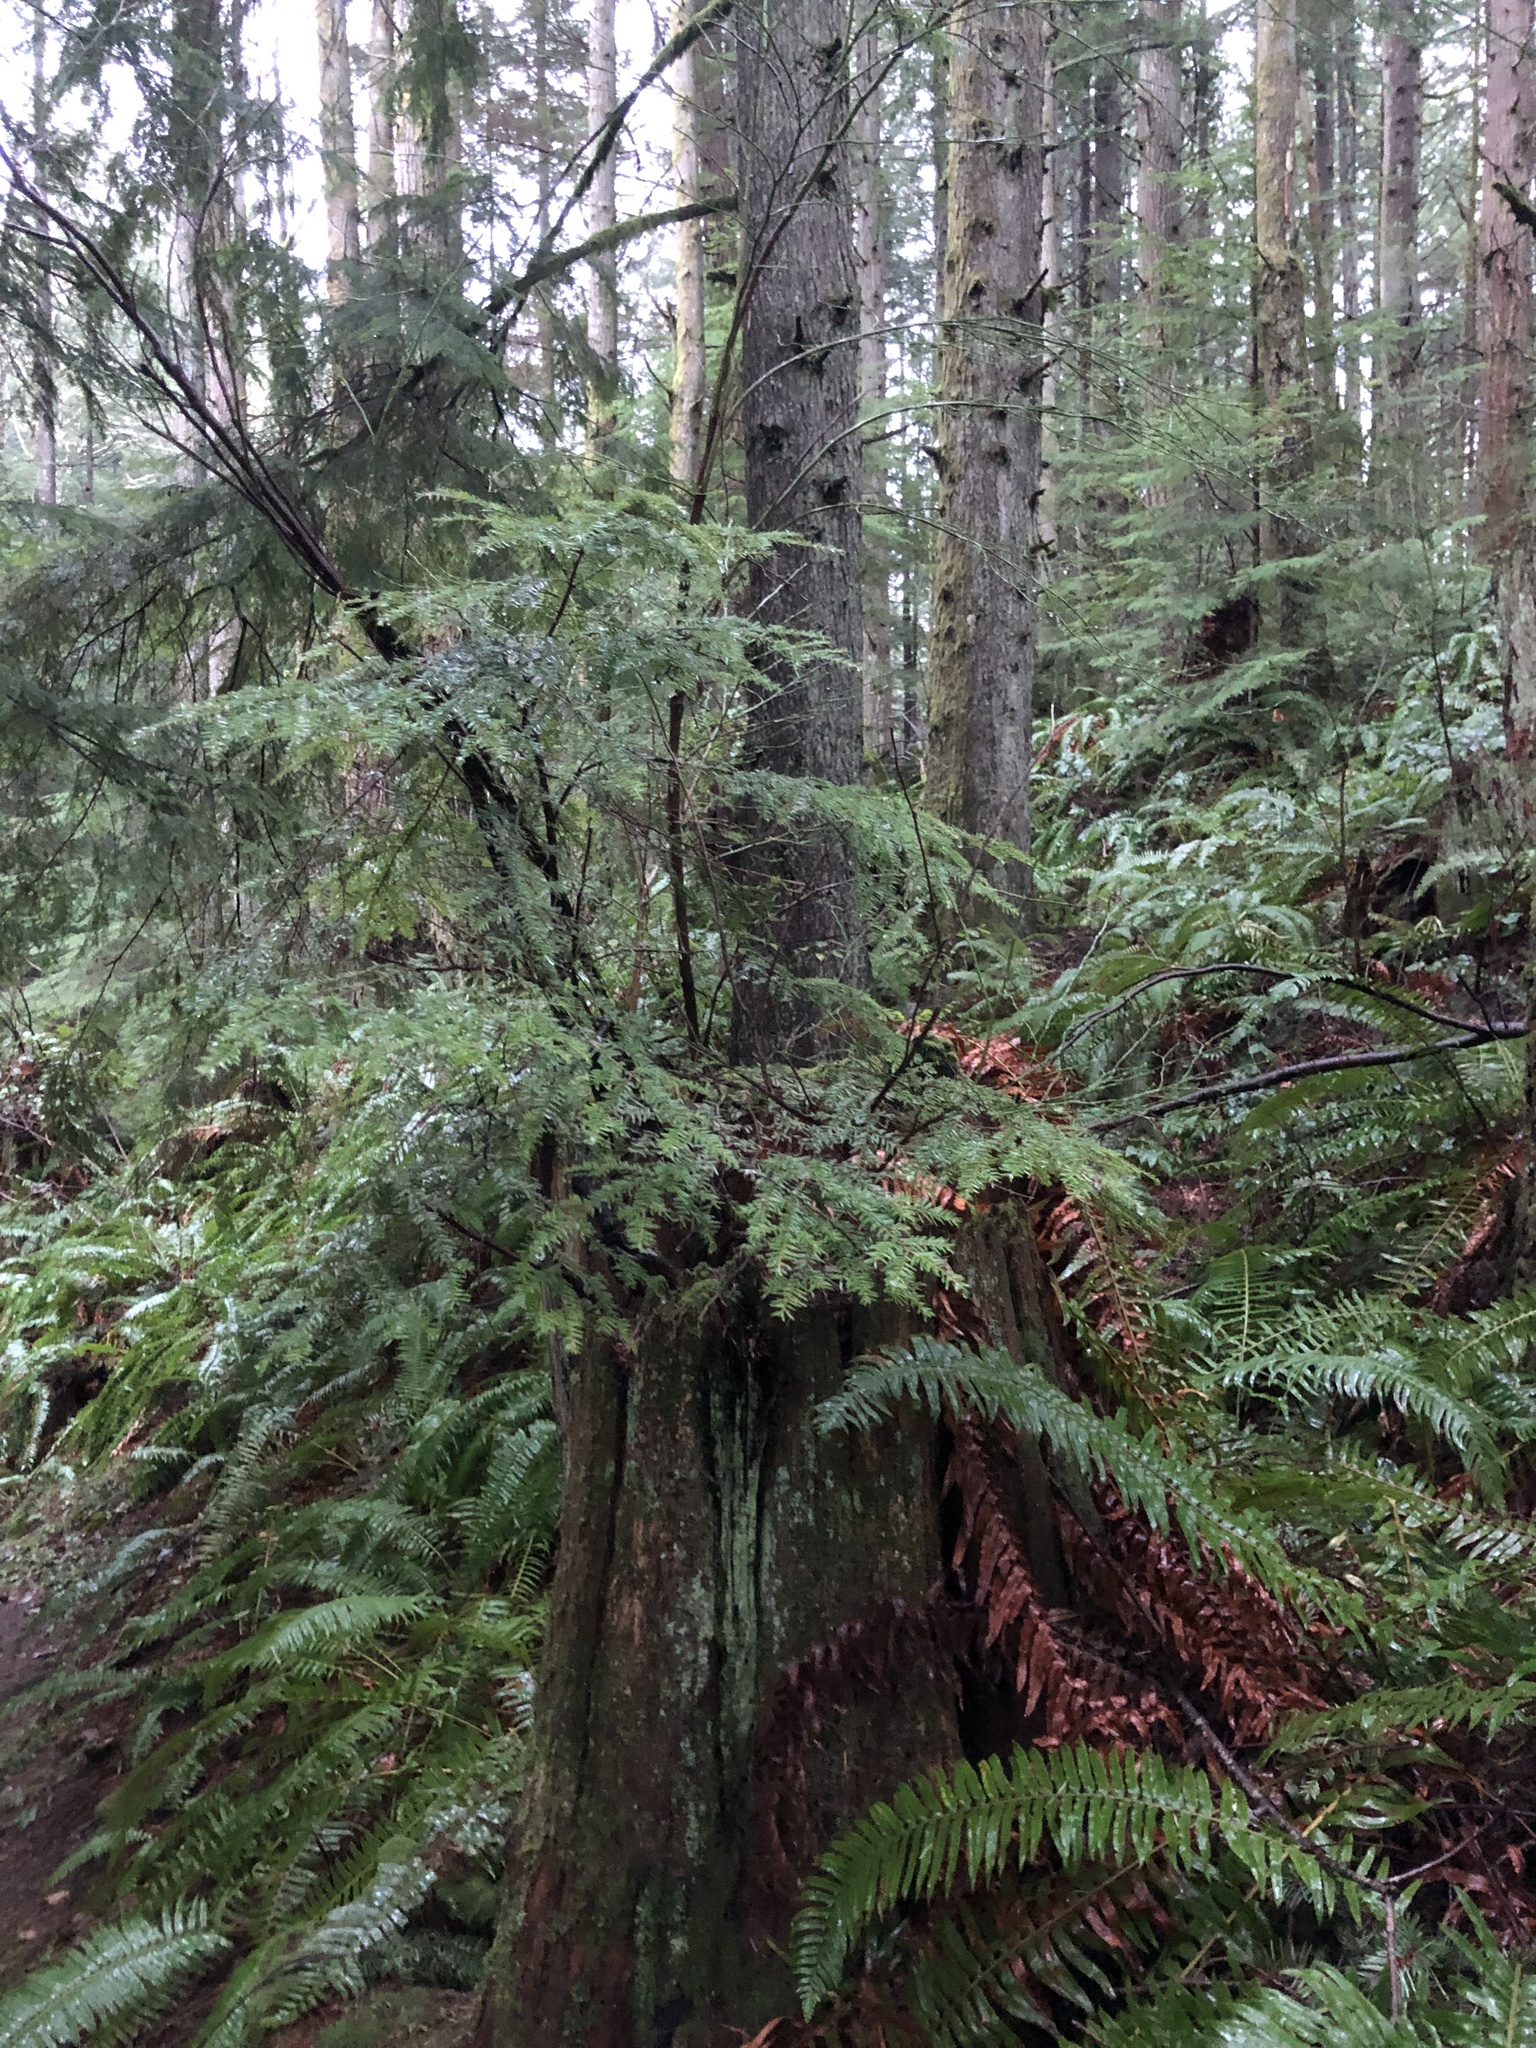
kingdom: Plantae
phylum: Tracheophyta
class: Pinopsida
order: Pinales
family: Pinaceae
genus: Tsuga
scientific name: Tsuga heterophylla
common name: Western hemlock
